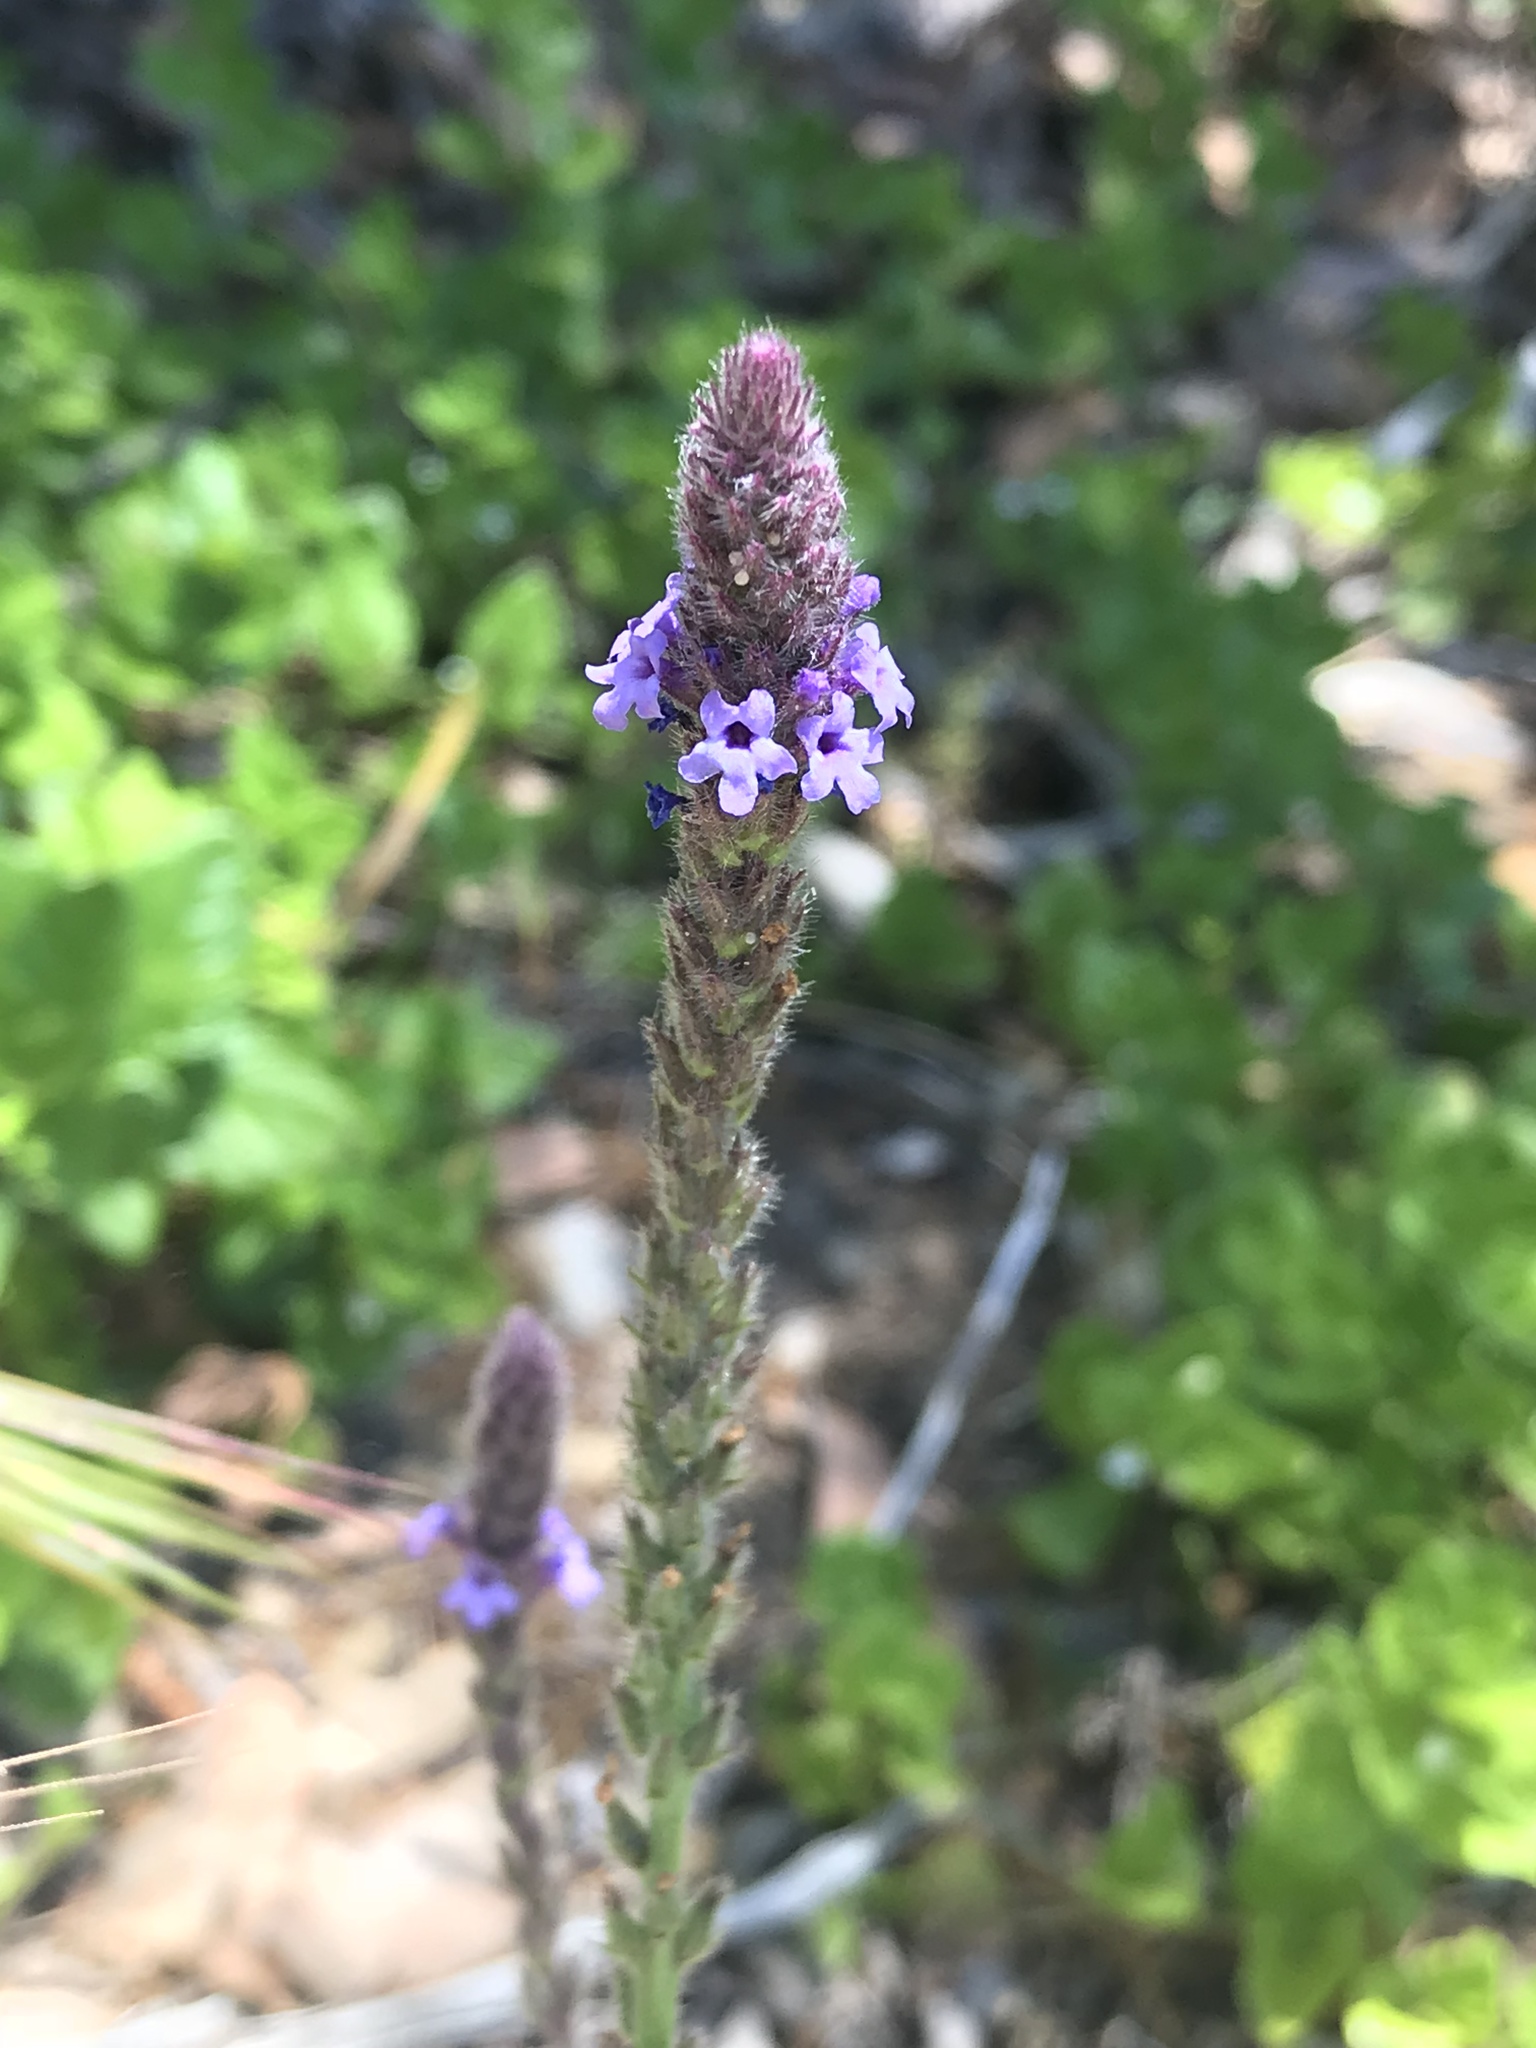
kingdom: Plantae
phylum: Tracheophyta
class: Magnoliopsida
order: Lamiales
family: Verbenaceae
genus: Verbena
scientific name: Verbena lasiostachys
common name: Vervain
